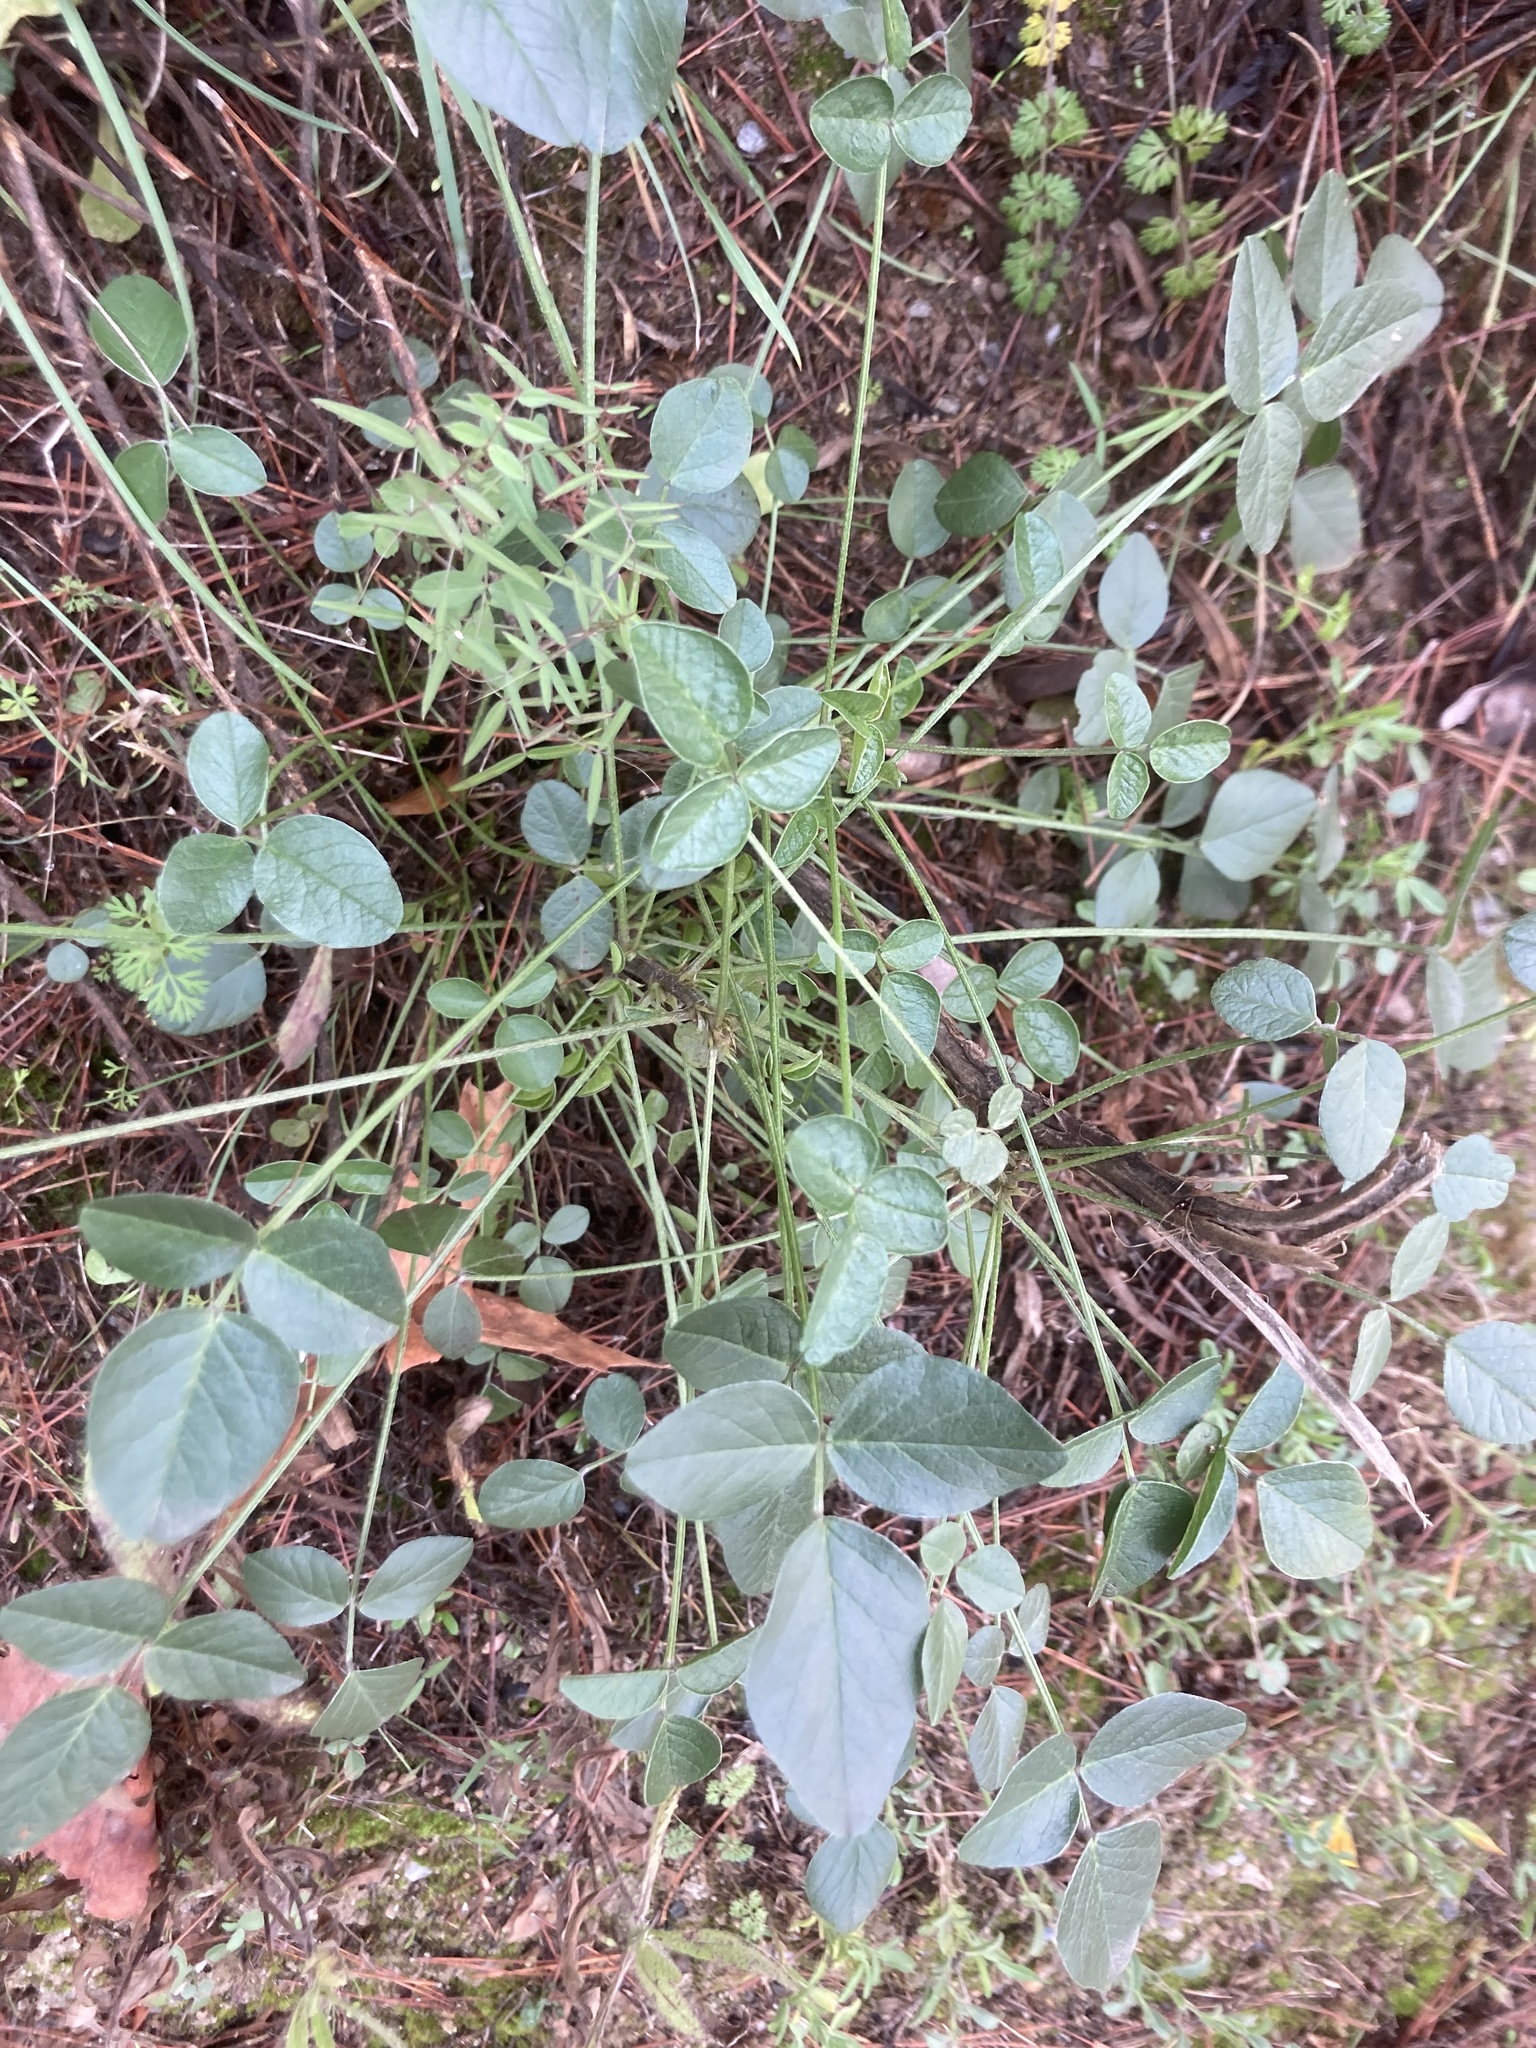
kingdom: Plantae
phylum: Tracheophyta
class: Magnoliopsida
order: Fabales
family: Fabaceae
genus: Bituminaria
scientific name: Bituminaria bituminosa
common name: Arabian pea
